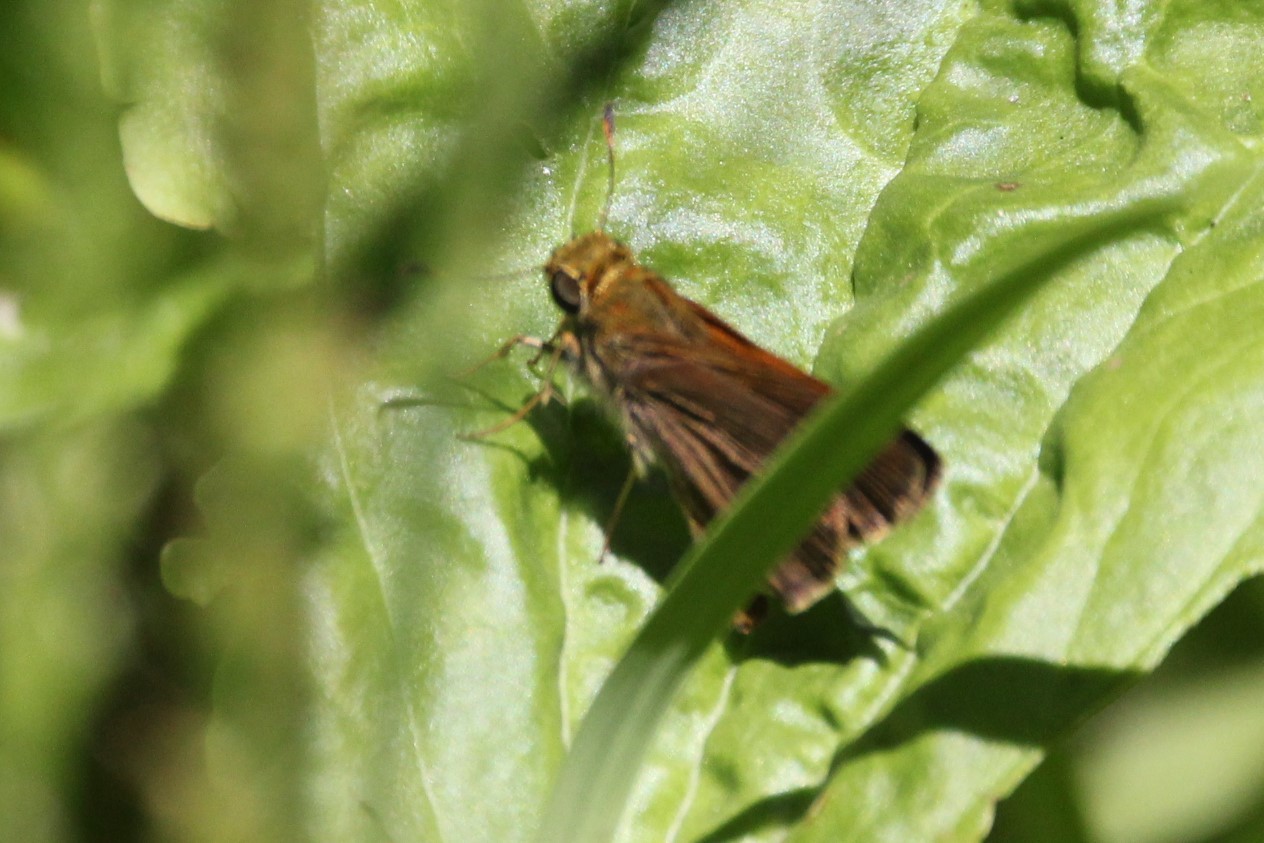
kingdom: Animalia
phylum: Arthropoda
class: Insecta
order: Lepidoptera
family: Hesperiidae
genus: Euphyes
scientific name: Euphyes vestris
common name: Dun skipper
